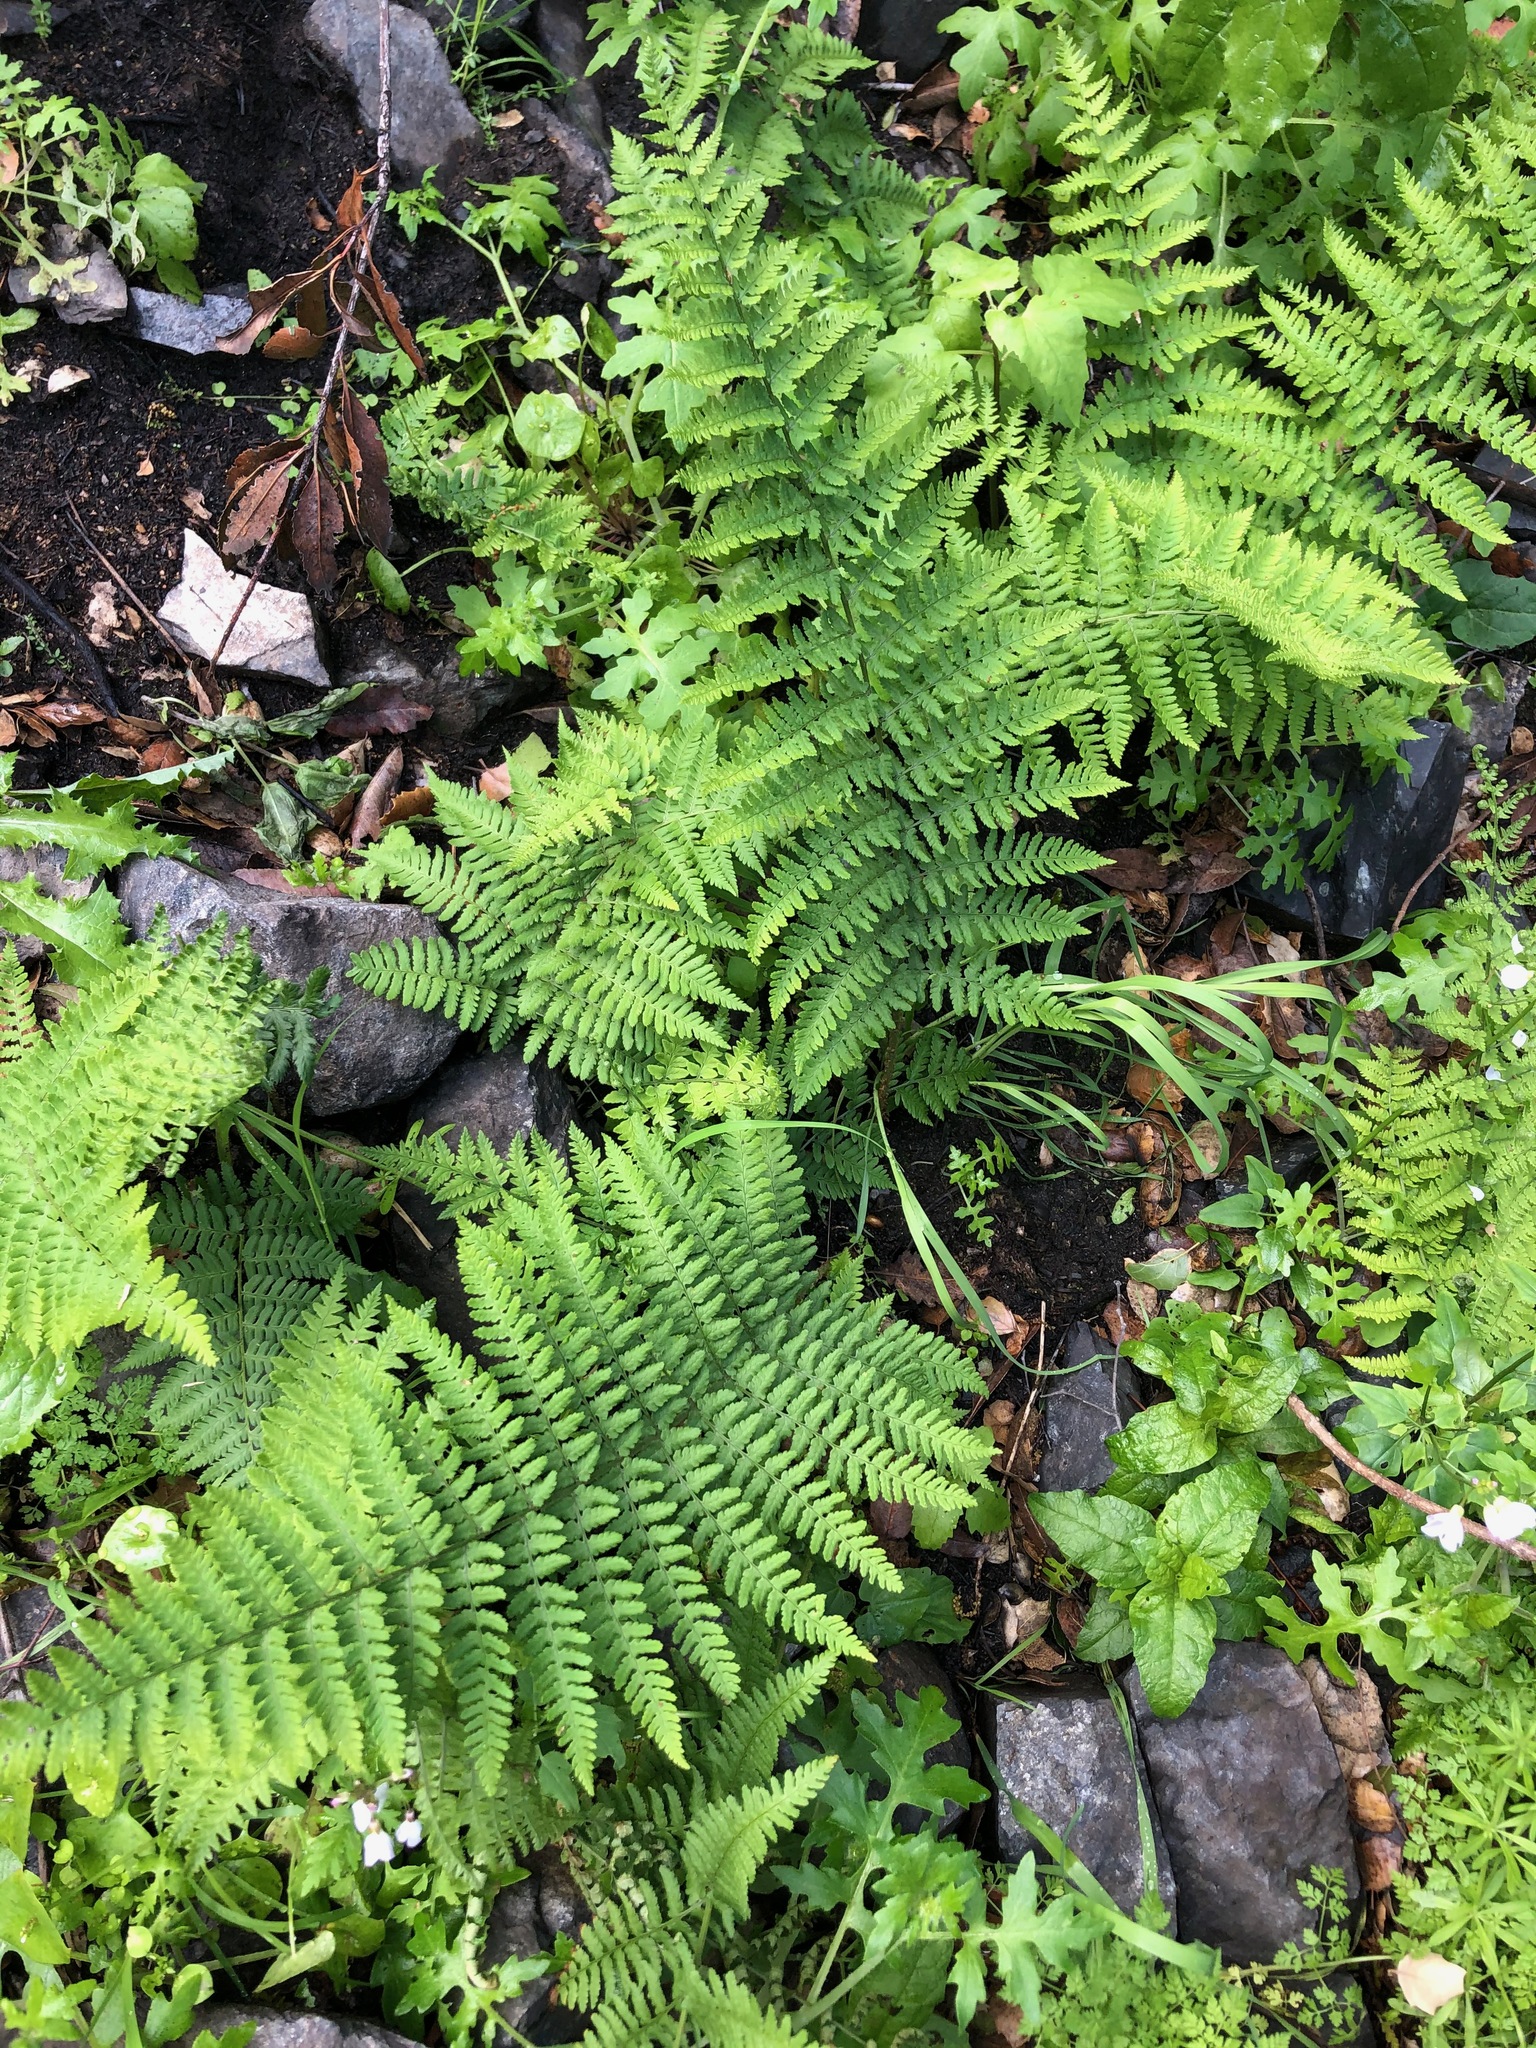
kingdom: Plantae
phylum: Tracheophyta
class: Polypodiopsida
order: Polypodiales
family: Dryopteridaceae
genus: Dryopteris
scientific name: Dryopteris arguta
